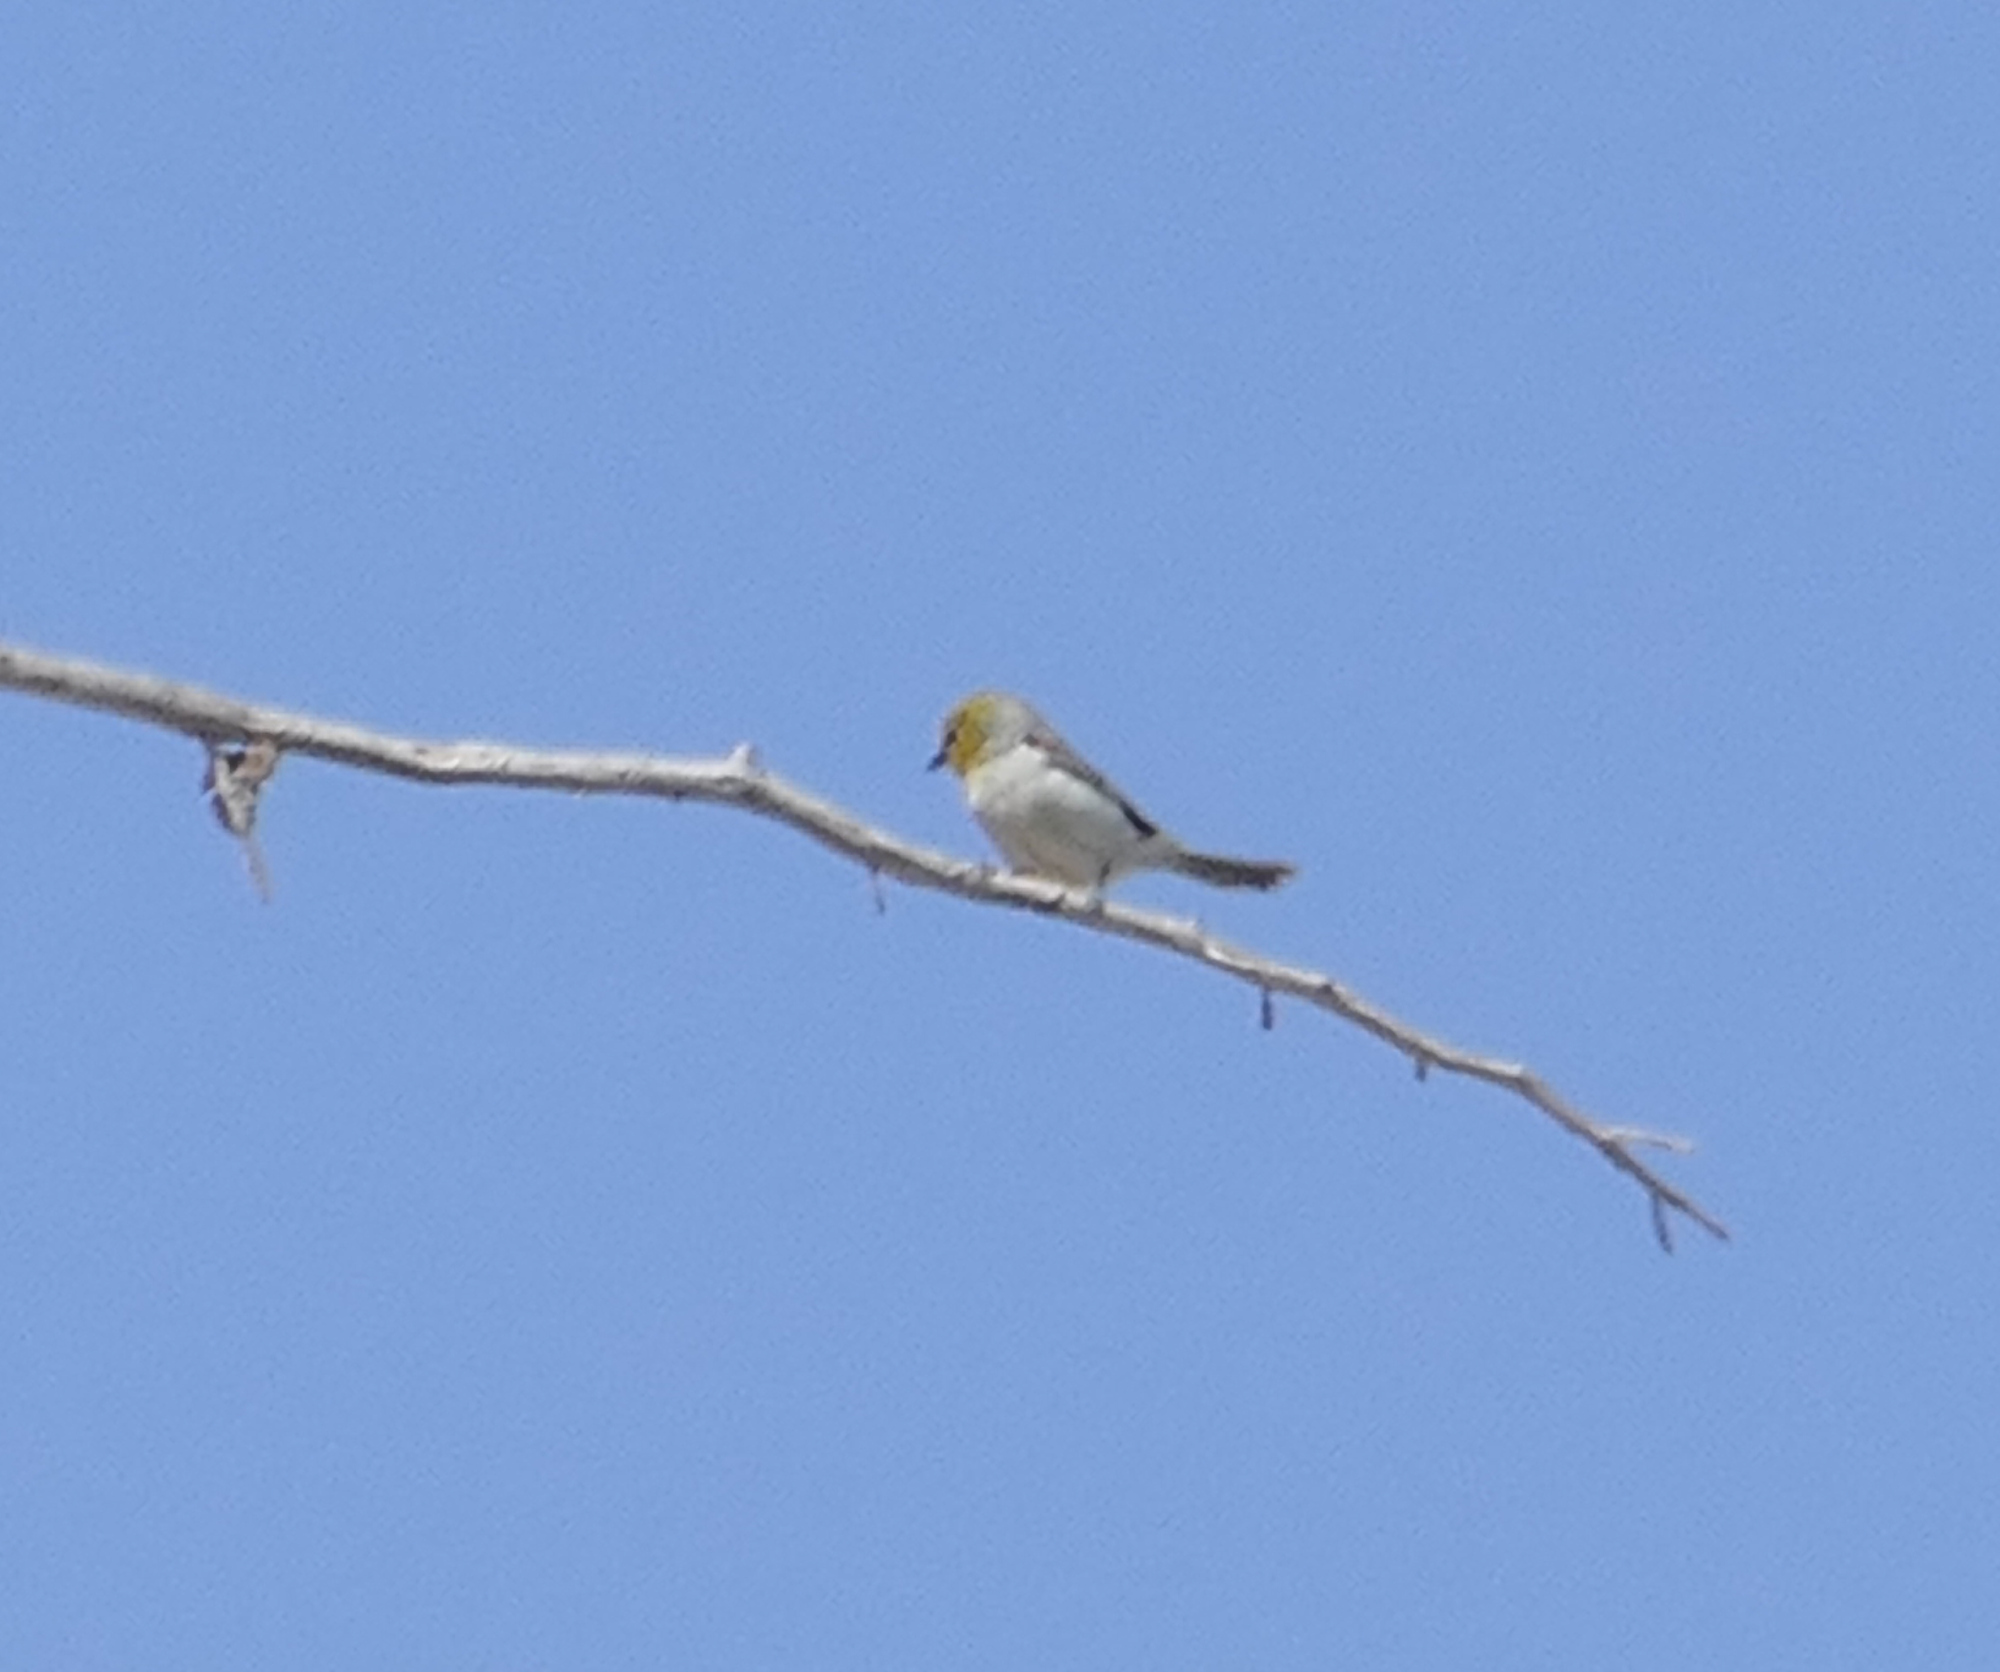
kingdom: Animalia
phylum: Chordata
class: Aves
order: Passeriformes
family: Remizidae
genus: Auriparus
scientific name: Auriparus flaviceps
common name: Verdin
